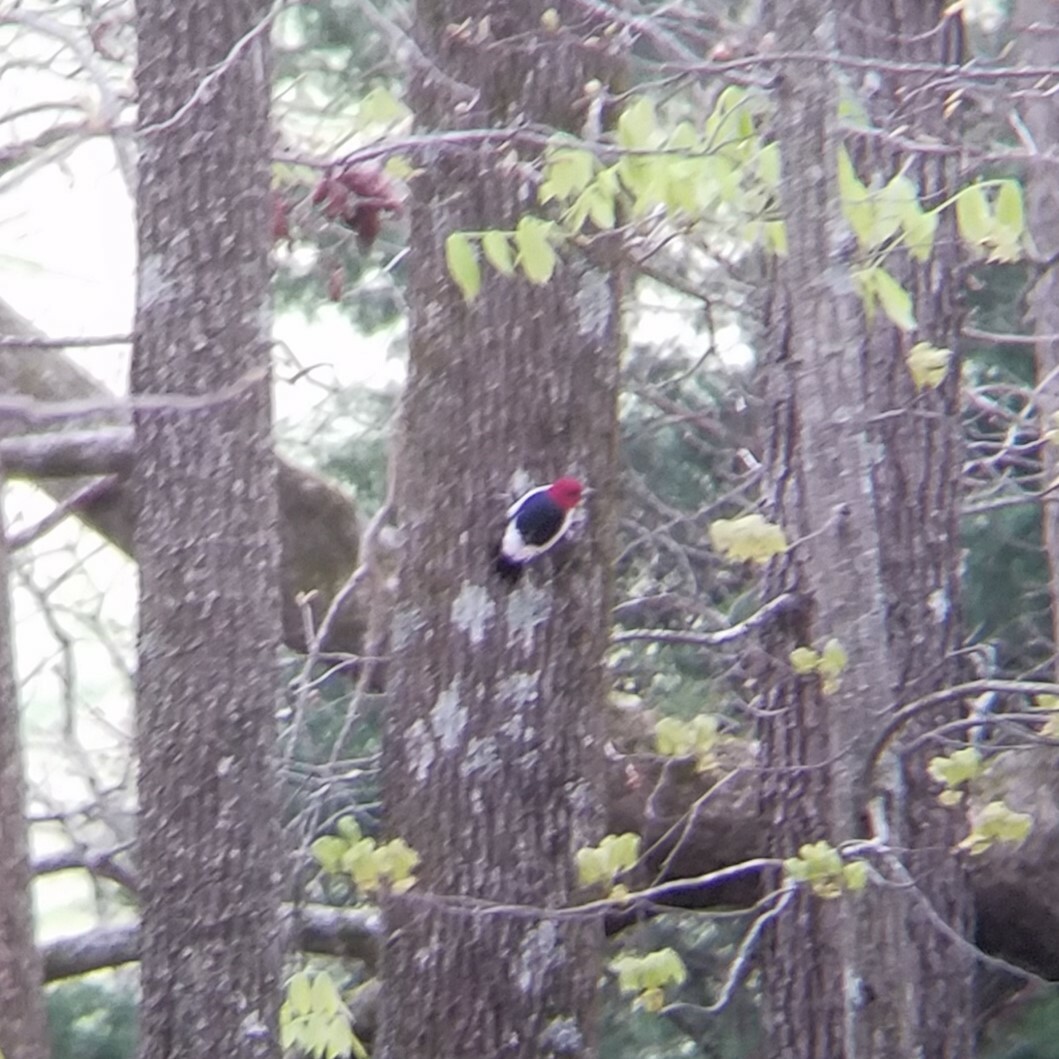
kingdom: Animalia
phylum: Chordata
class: Aves
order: Piciformes
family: Picidae
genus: Melanerpes
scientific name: Melanerpes erythrocephalus
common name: Red-headed woodpecker
